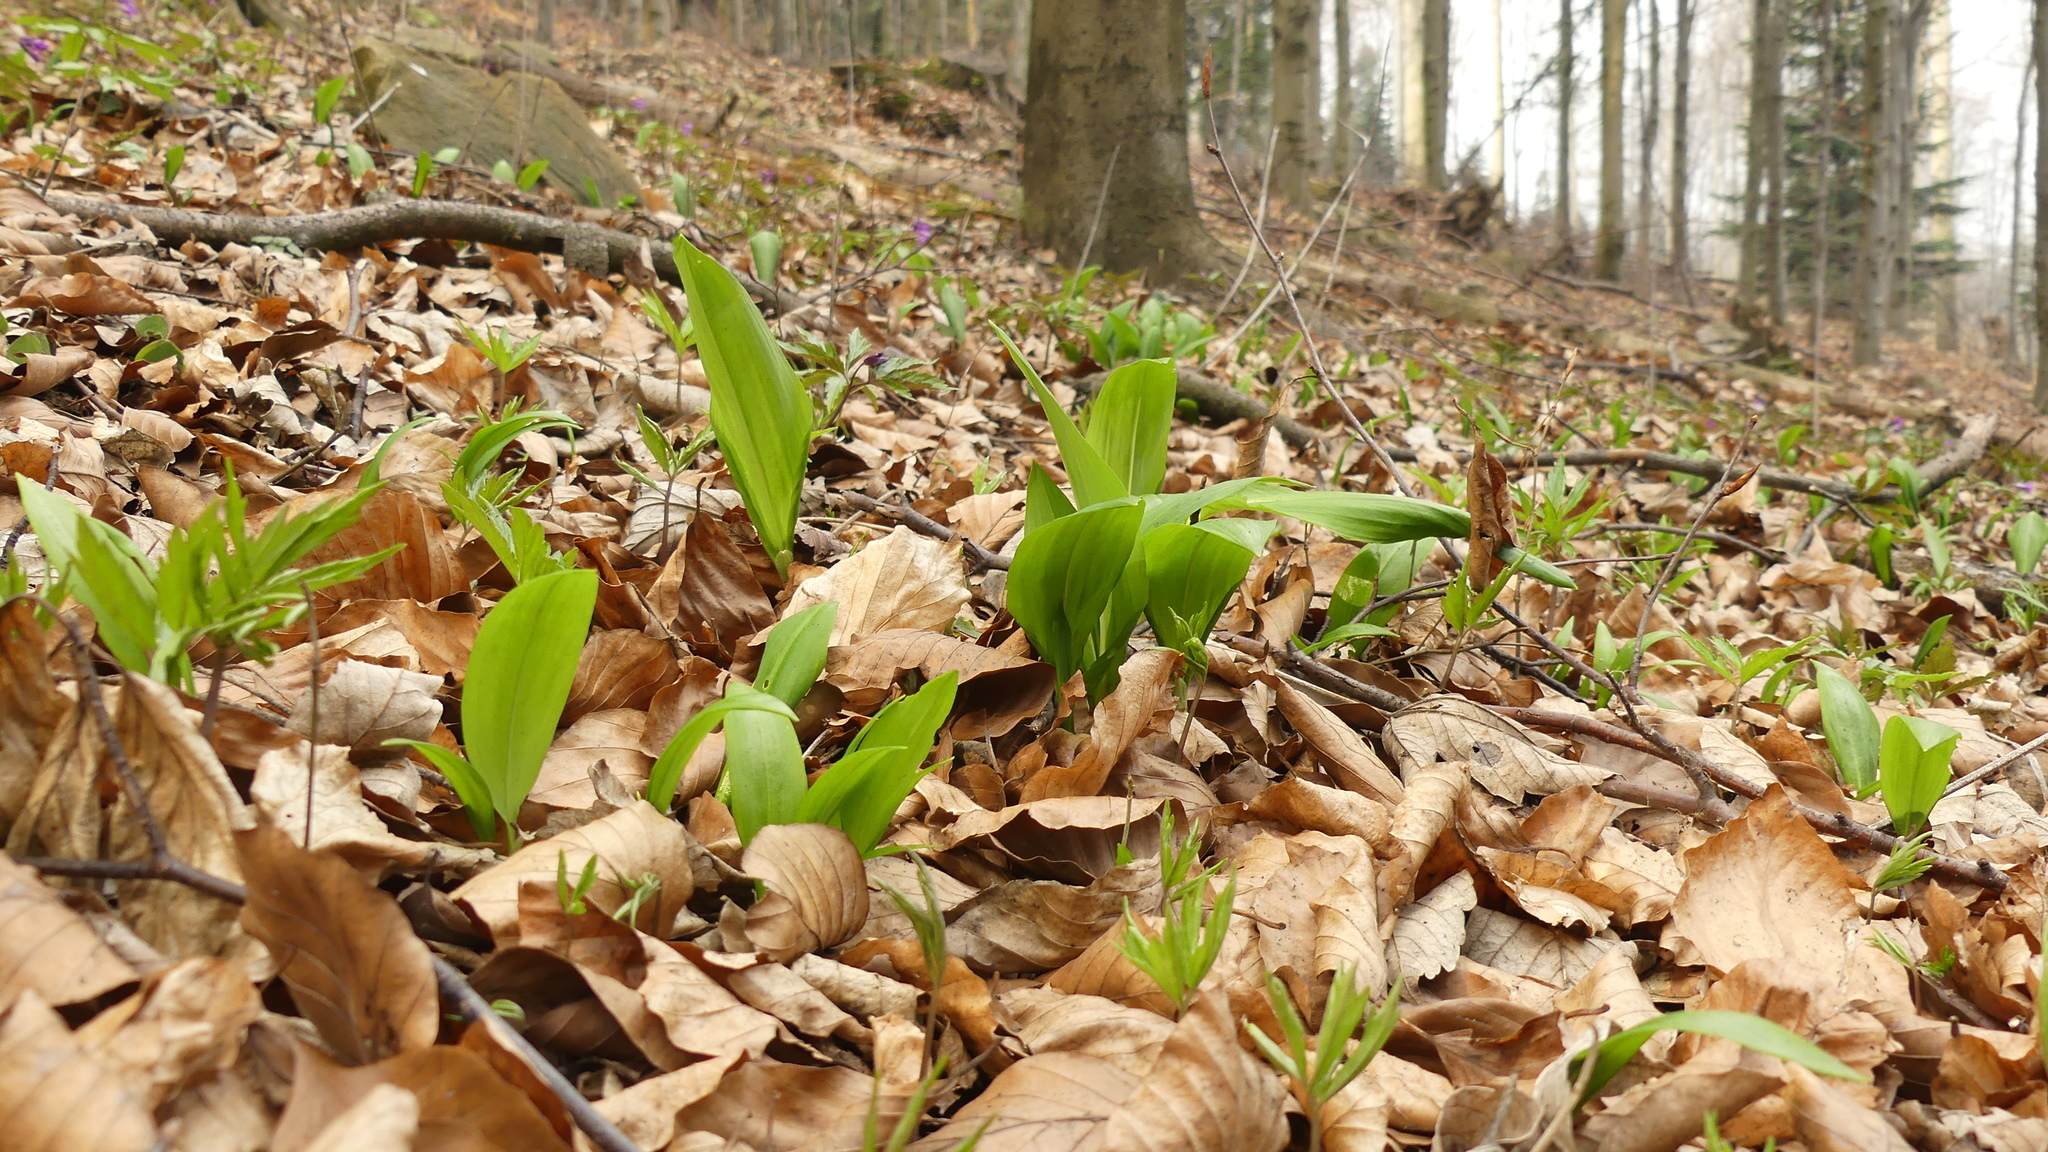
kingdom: Plantae
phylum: Tracheophyta
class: Liliopsida
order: Asparagales
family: Amaryllidaceae
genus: Allium
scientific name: Allium ursinum
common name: Ramsons
